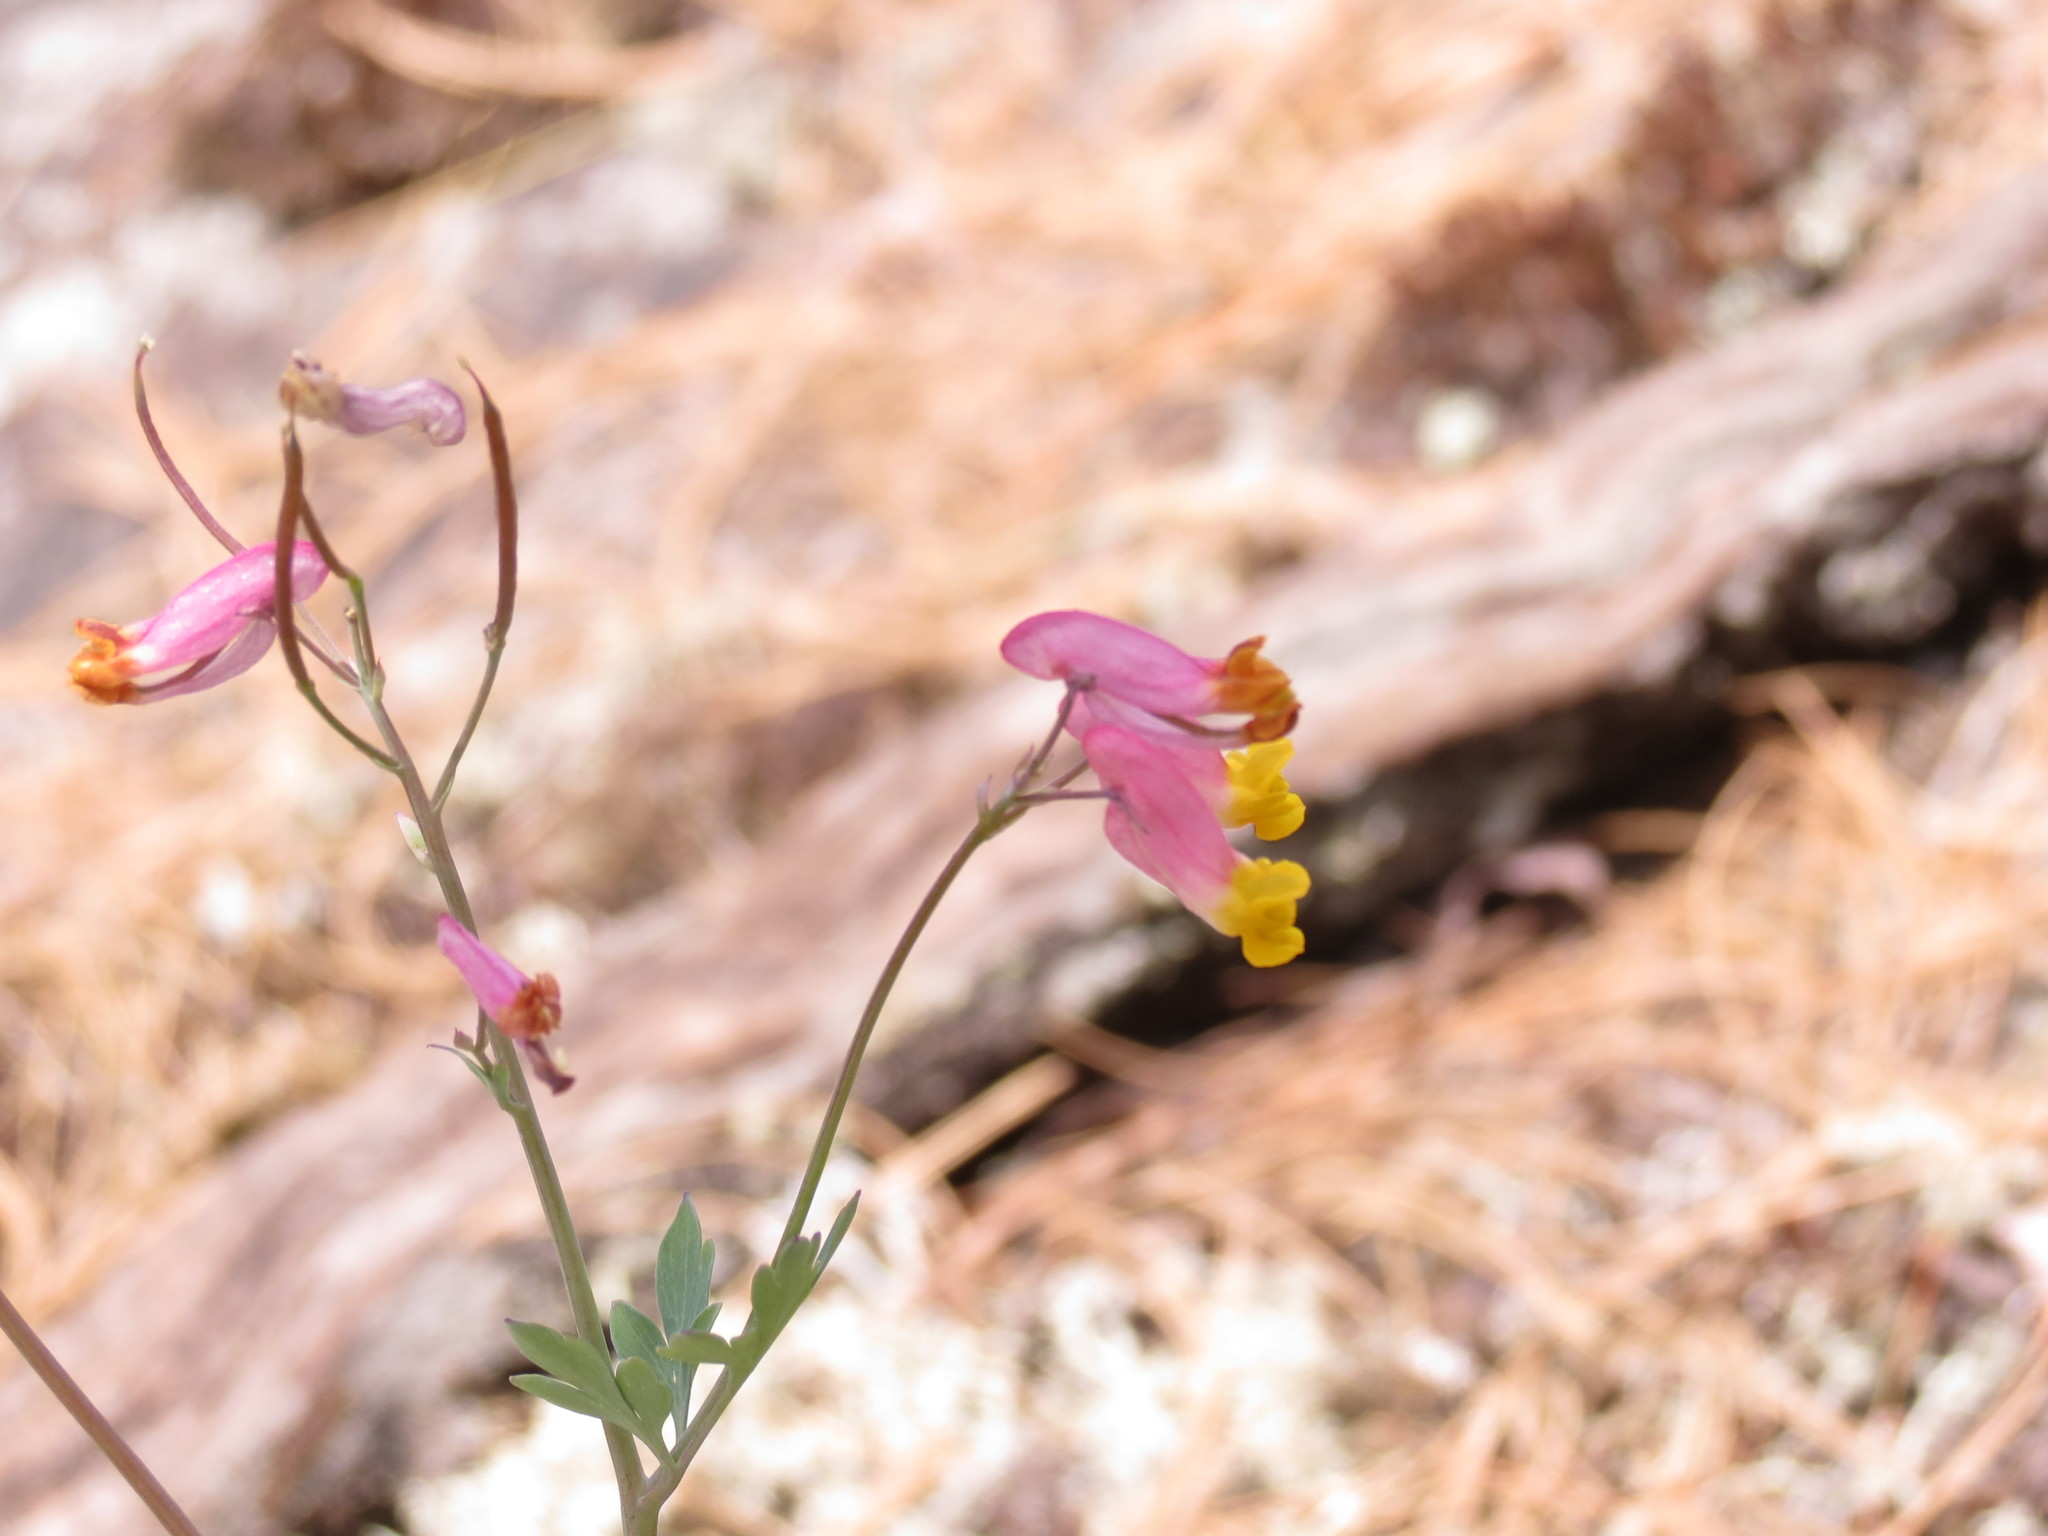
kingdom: Plantae
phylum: Tracheophyta
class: Magnoliopsida
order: Ranunculales
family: Papaveraceae
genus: Capnoides
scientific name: Capnoides sempervirens
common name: Rock harlequin
